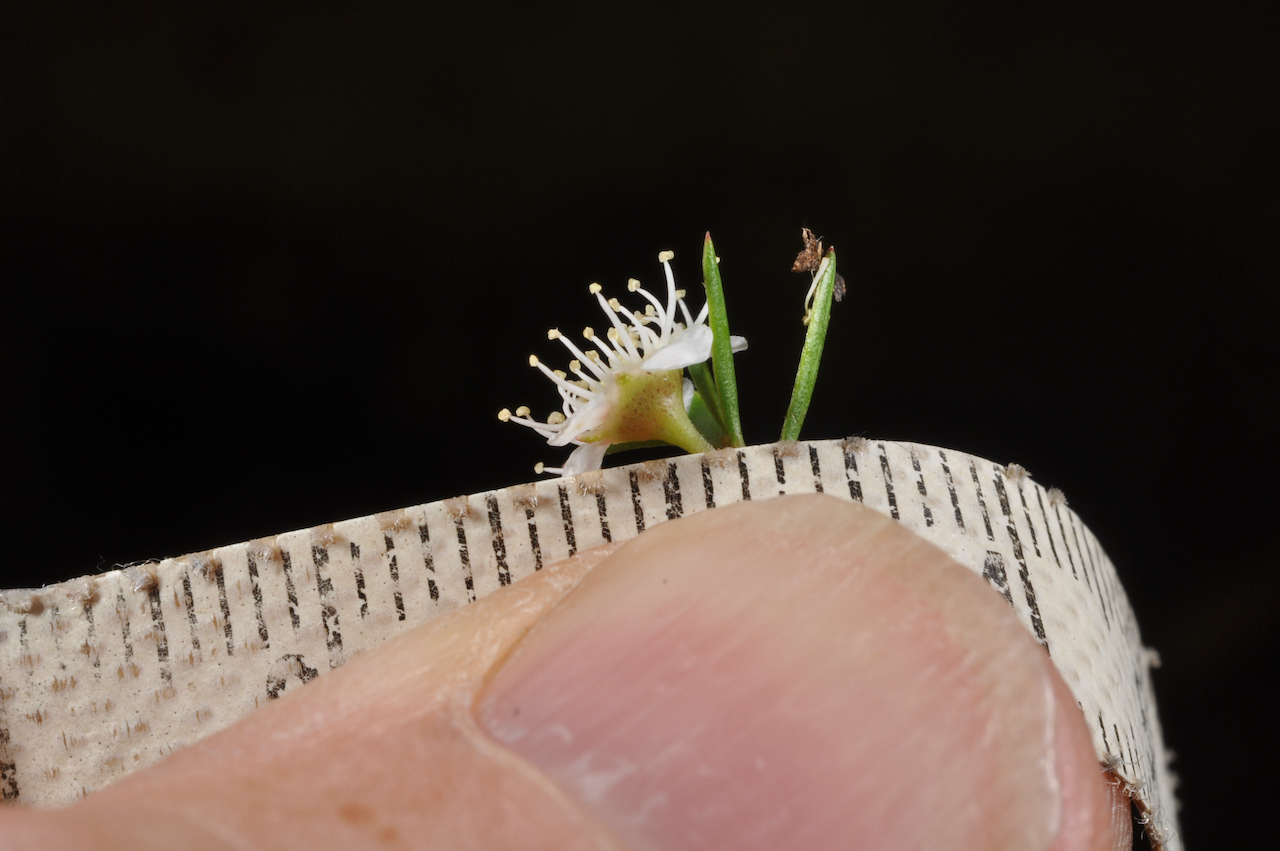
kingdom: Plantae
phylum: Tracheophyta
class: Magnoliopsida
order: Myrtales
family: Myrtaceae
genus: Kunzea
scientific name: Kunzea robusta
